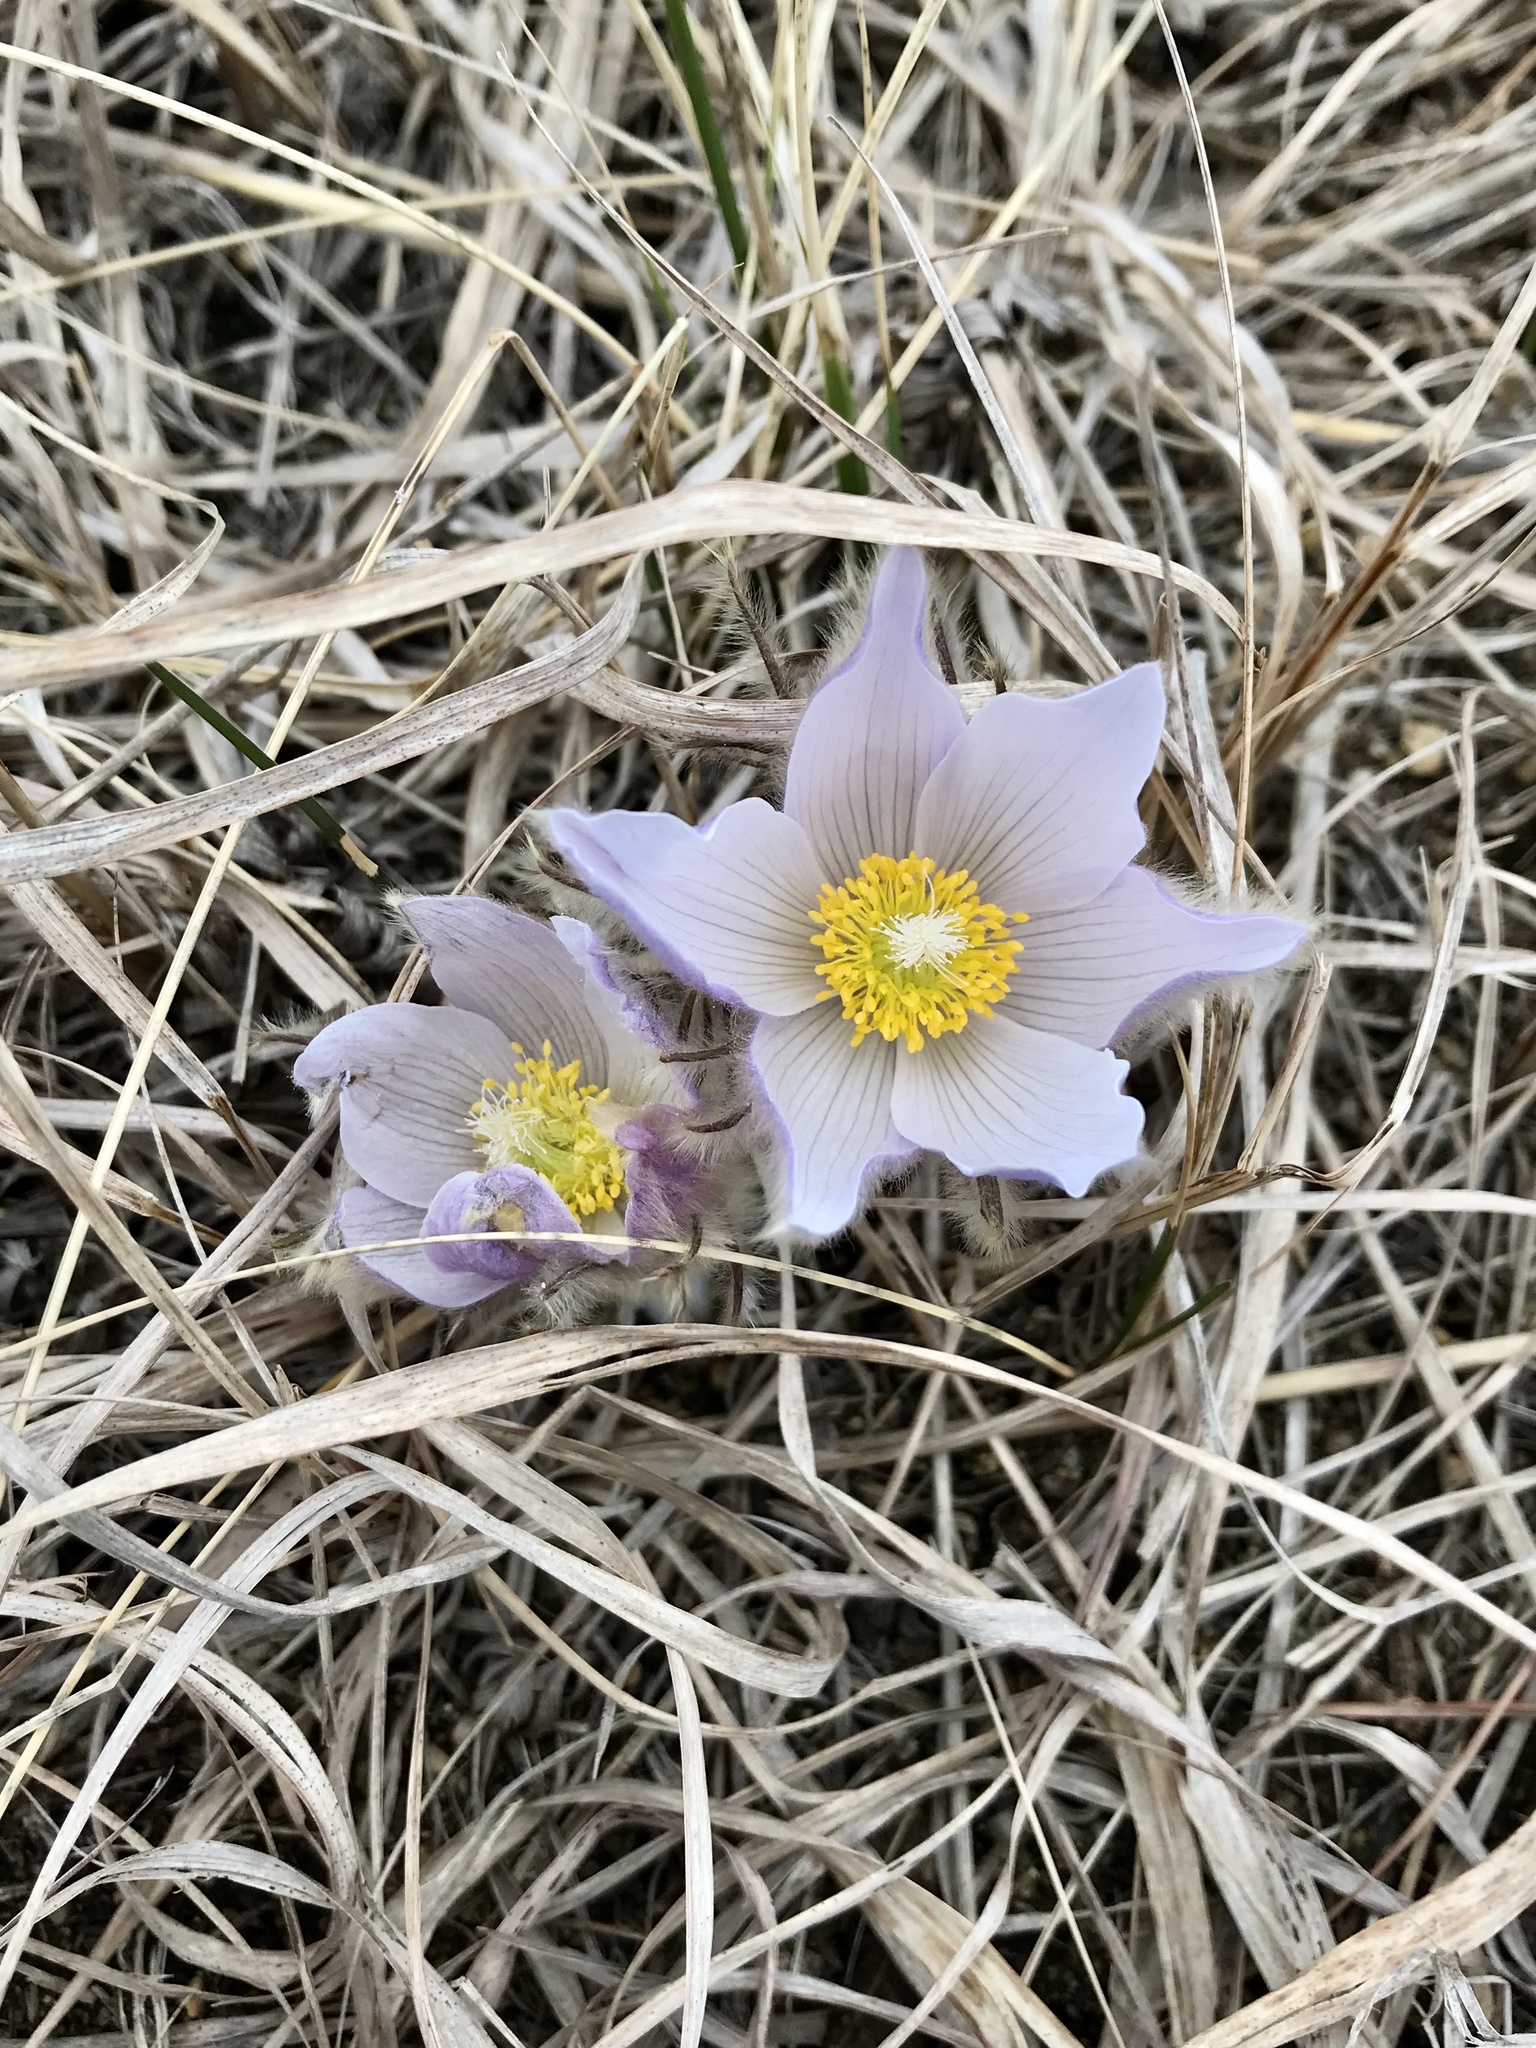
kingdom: Plantae
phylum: Tracheophyta
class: Magnoliopsida
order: Ranunculales
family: Ranunculaceae
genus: Pulsatilla
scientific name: Pulsatilla nuttalliana
